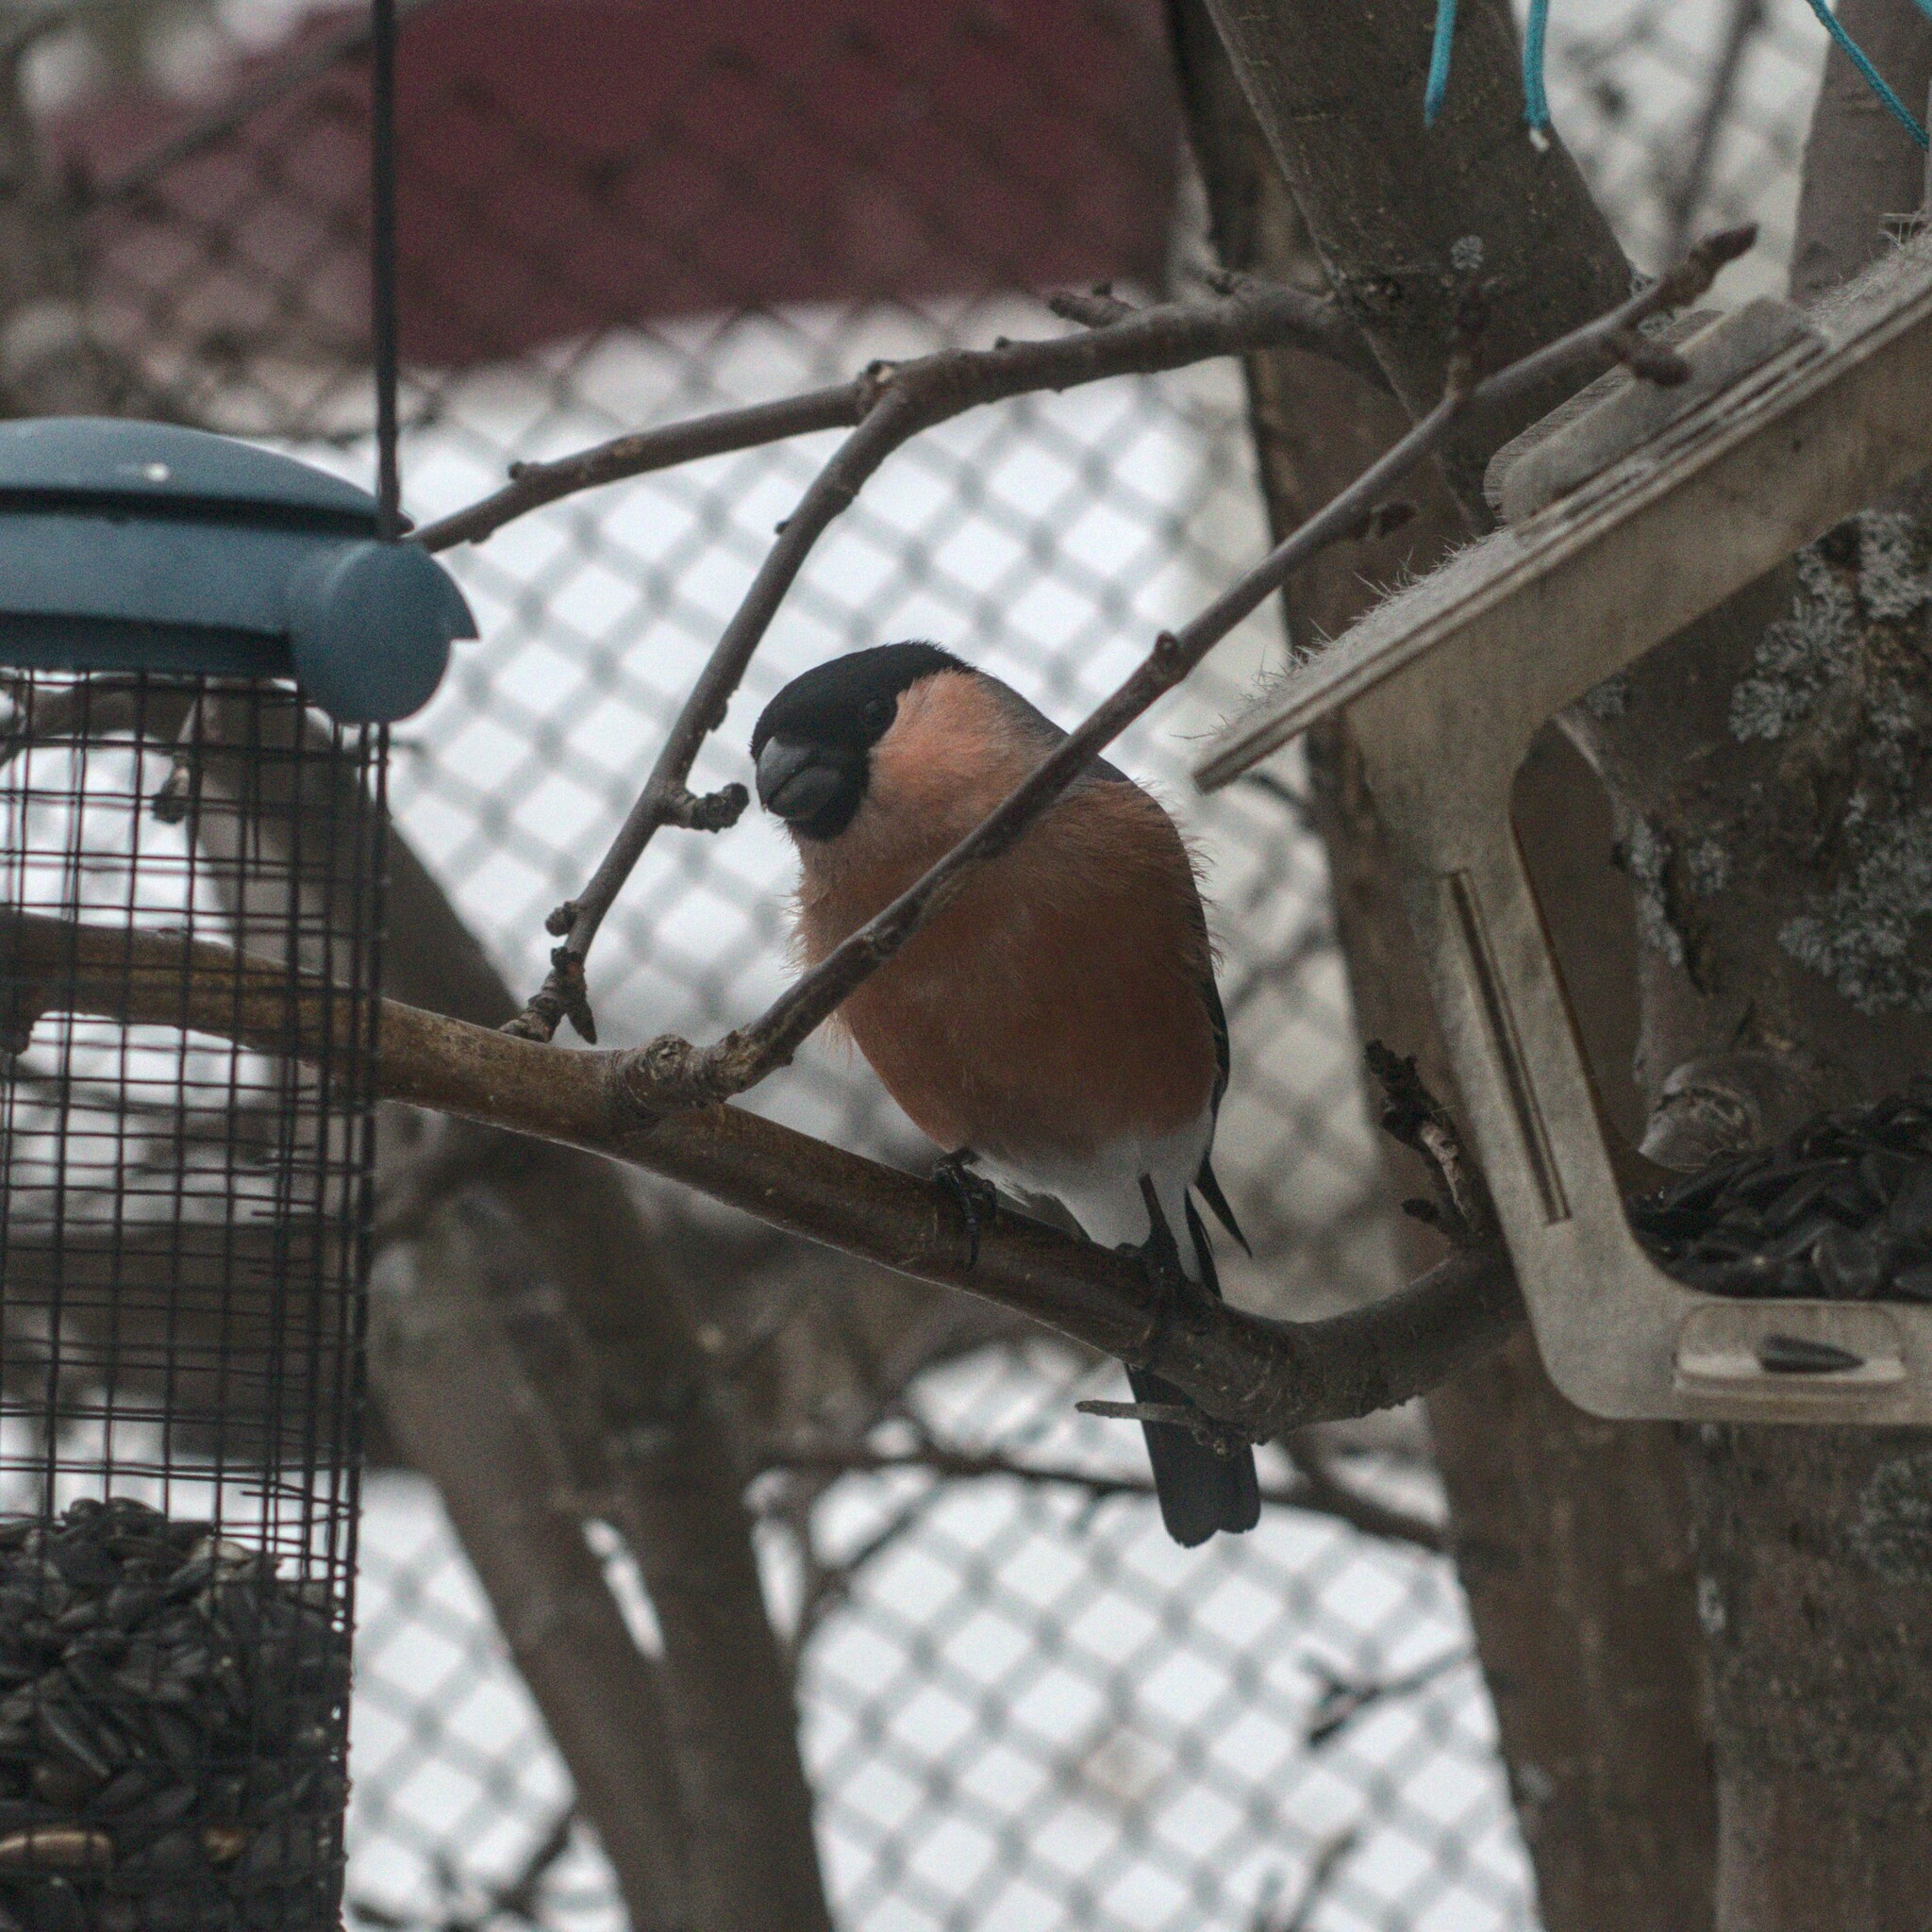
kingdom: Animalia
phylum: Chordata
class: Aves
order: Passeriformes
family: Fringillidae
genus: Pyrrhula
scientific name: Pyrrhula pyrrhula
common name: Eurasian bullfinch
